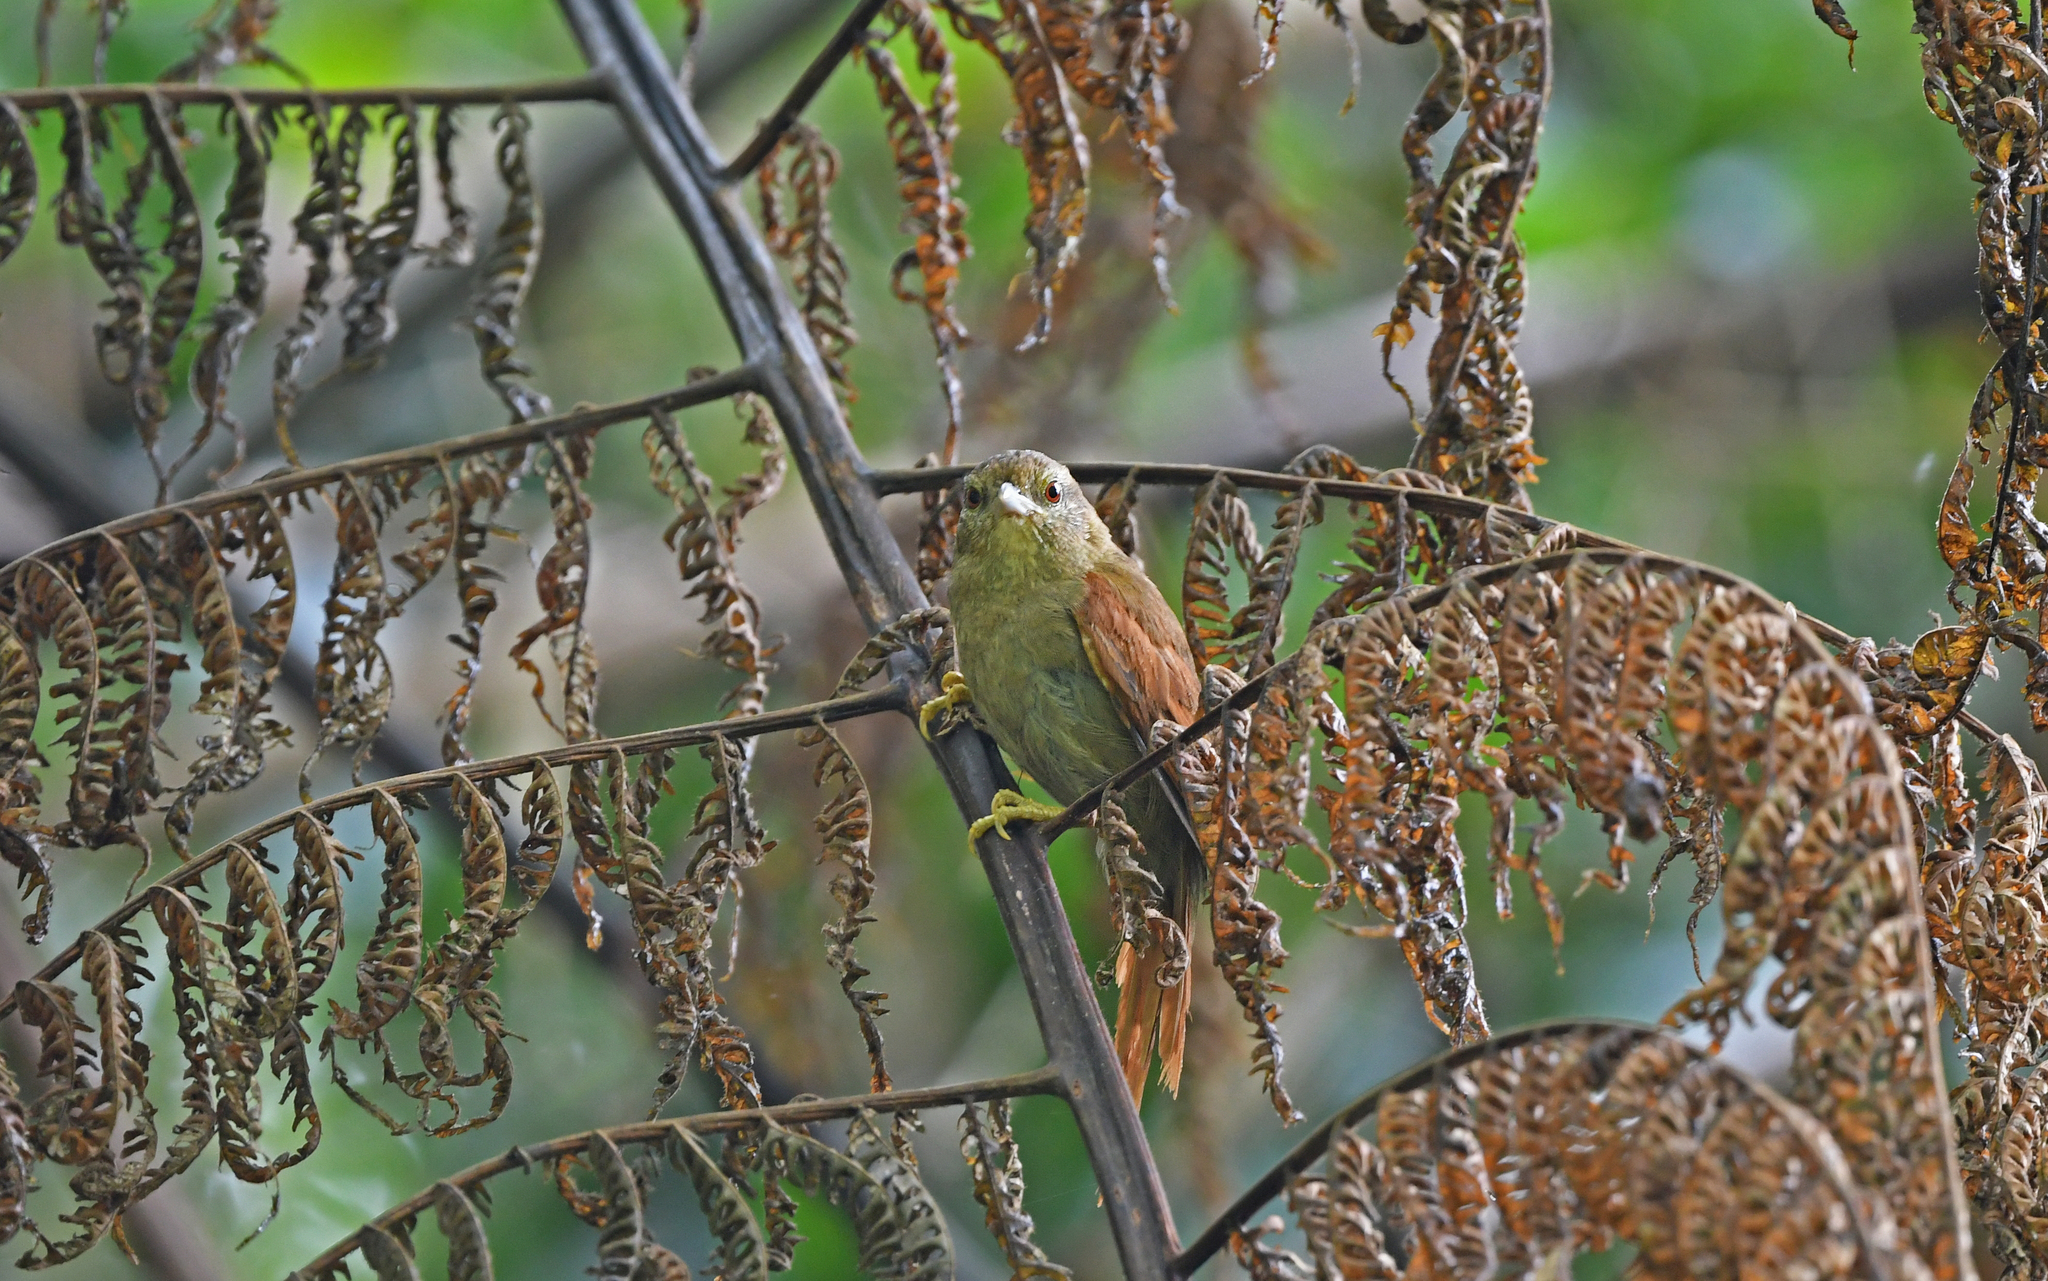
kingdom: Animalia
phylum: Chordata
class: Aves
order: Passeriformes
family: Furnariidae
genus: Thripophaga
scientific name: Thripophaga fusciceps
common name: Plain softtail
